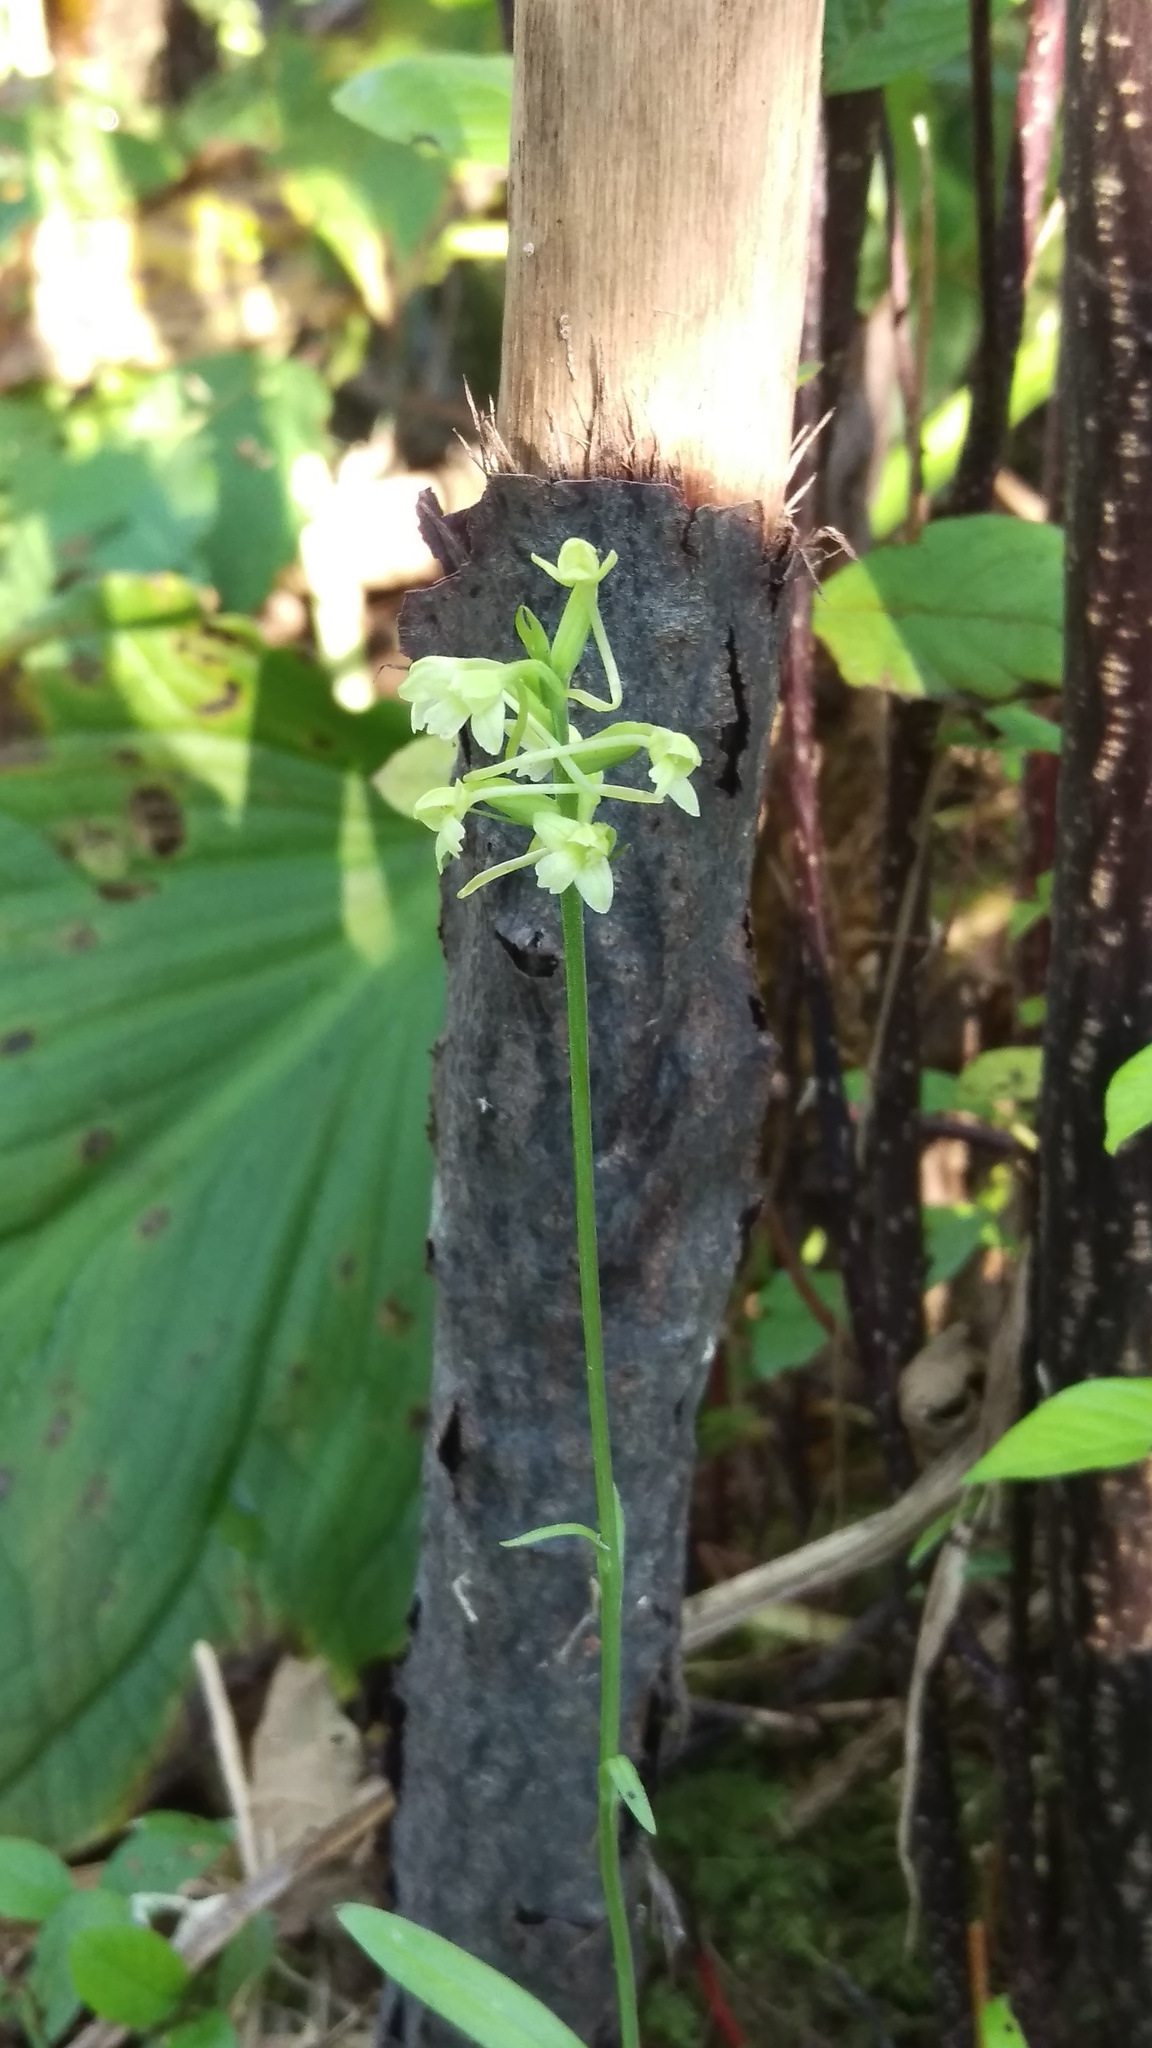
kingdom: Plantae
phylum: Tracheophyta
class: Liliopsida
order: Asparagales
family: Orchidaceae
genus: Platanthera
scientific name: Platanthera clavellata
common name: Club-spur orchid
